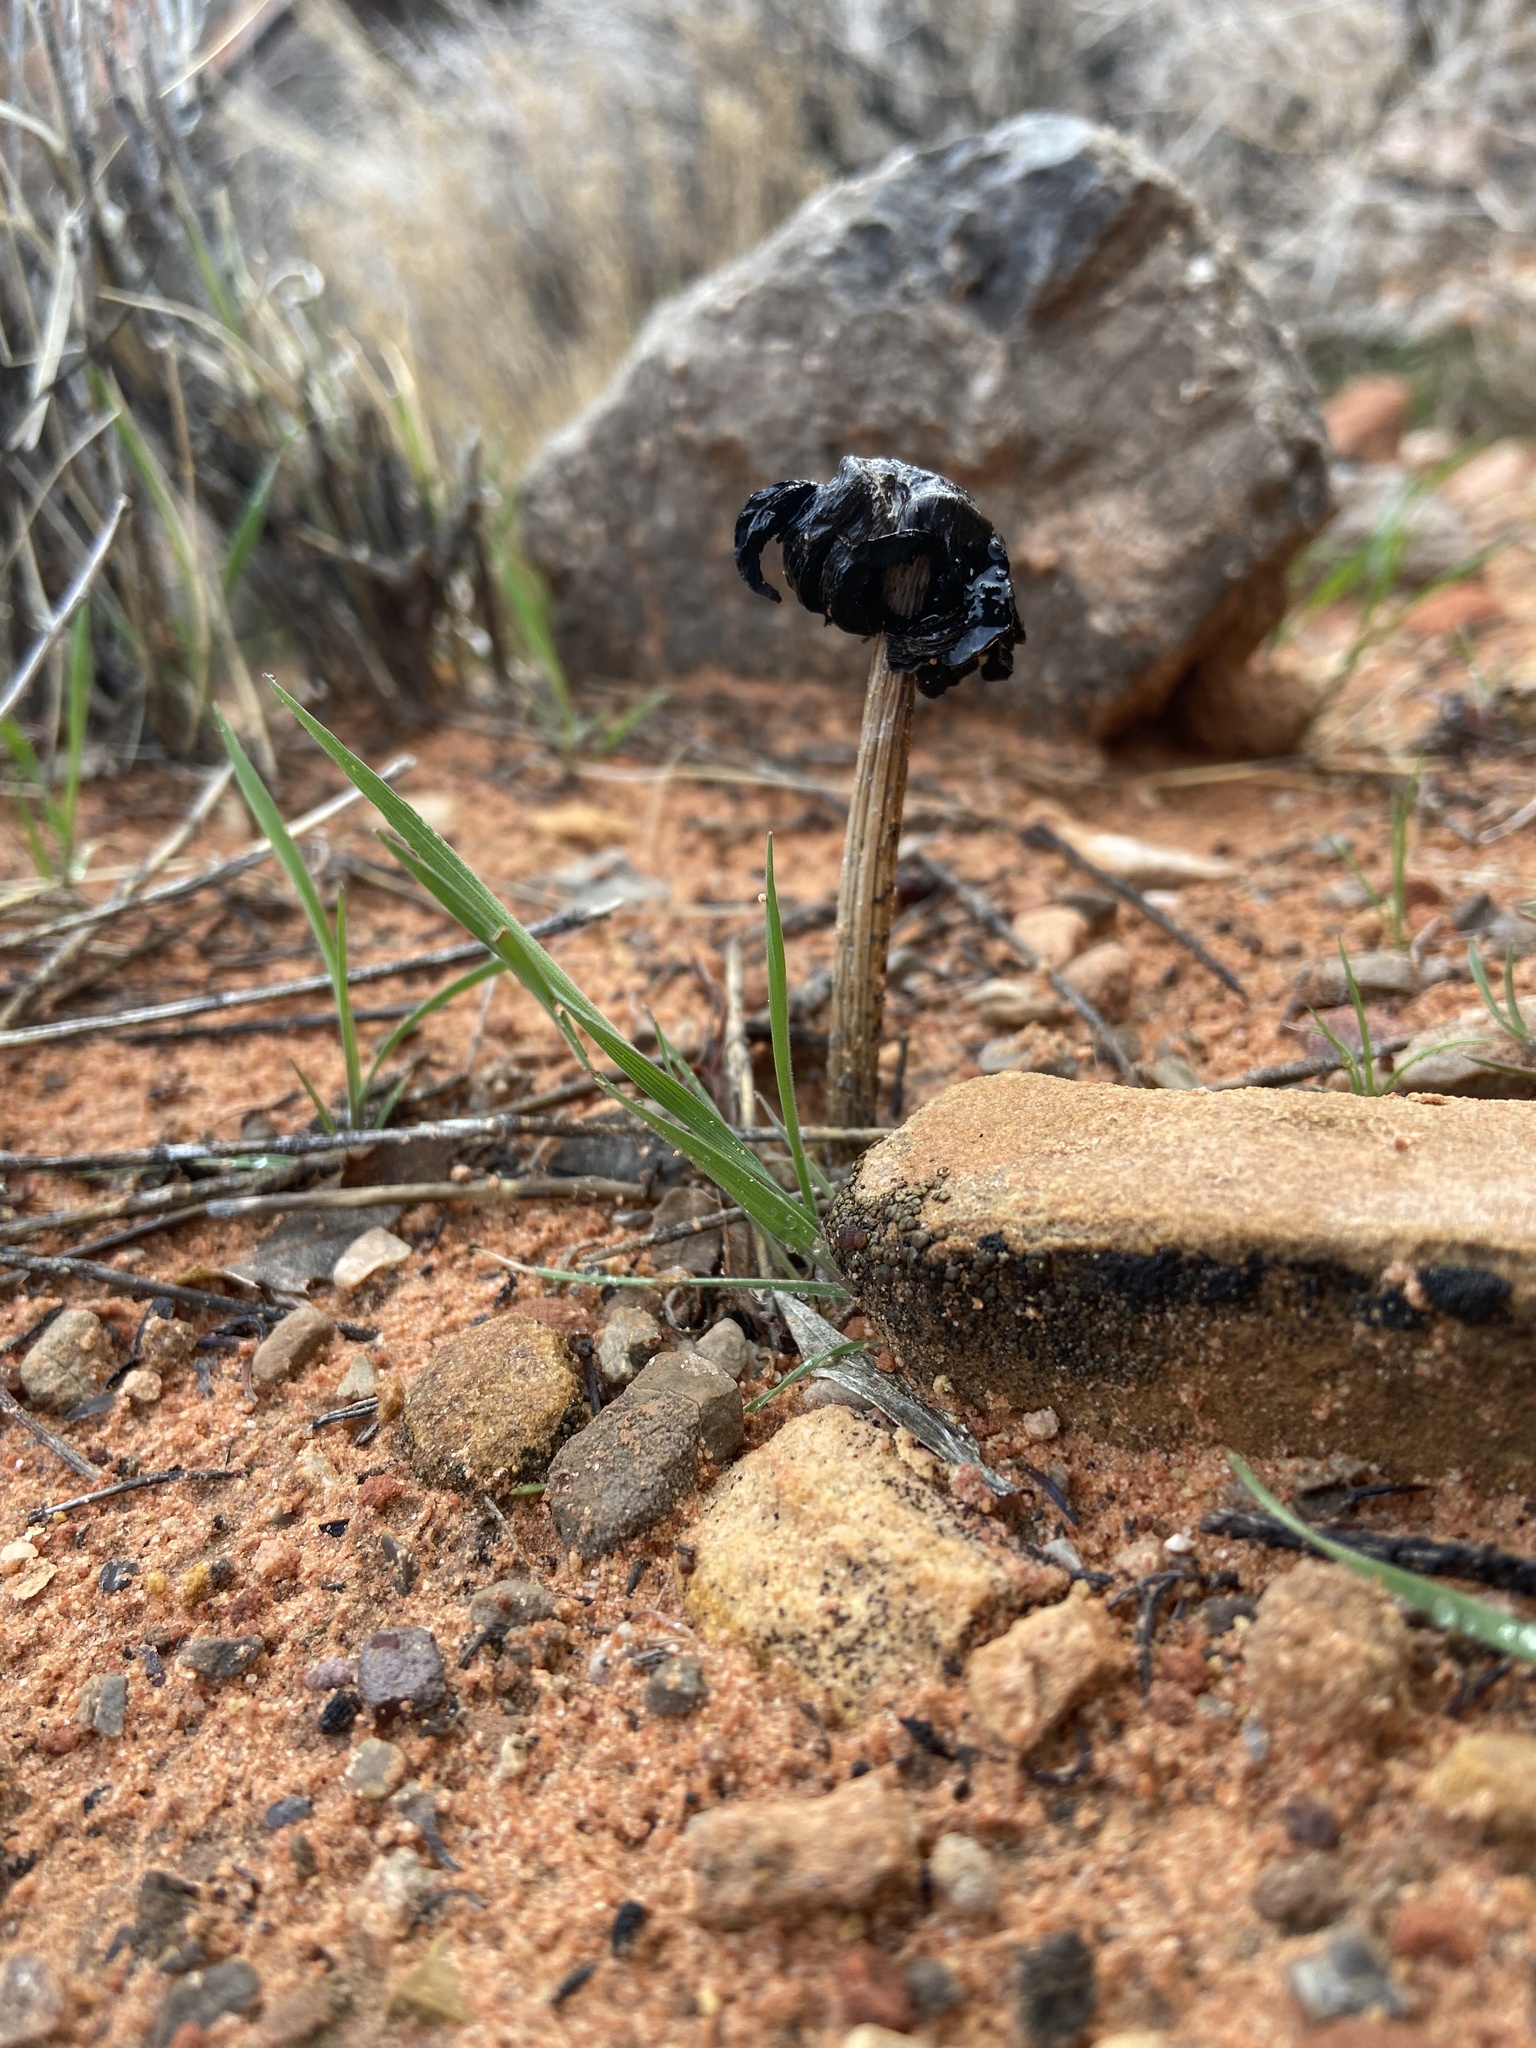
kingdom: Fungi
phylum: Basidiomycota
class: Agaricomycetes
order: Agaricales
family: Agaricaceae
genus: Montagnea
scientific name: Montagnea arenaria
